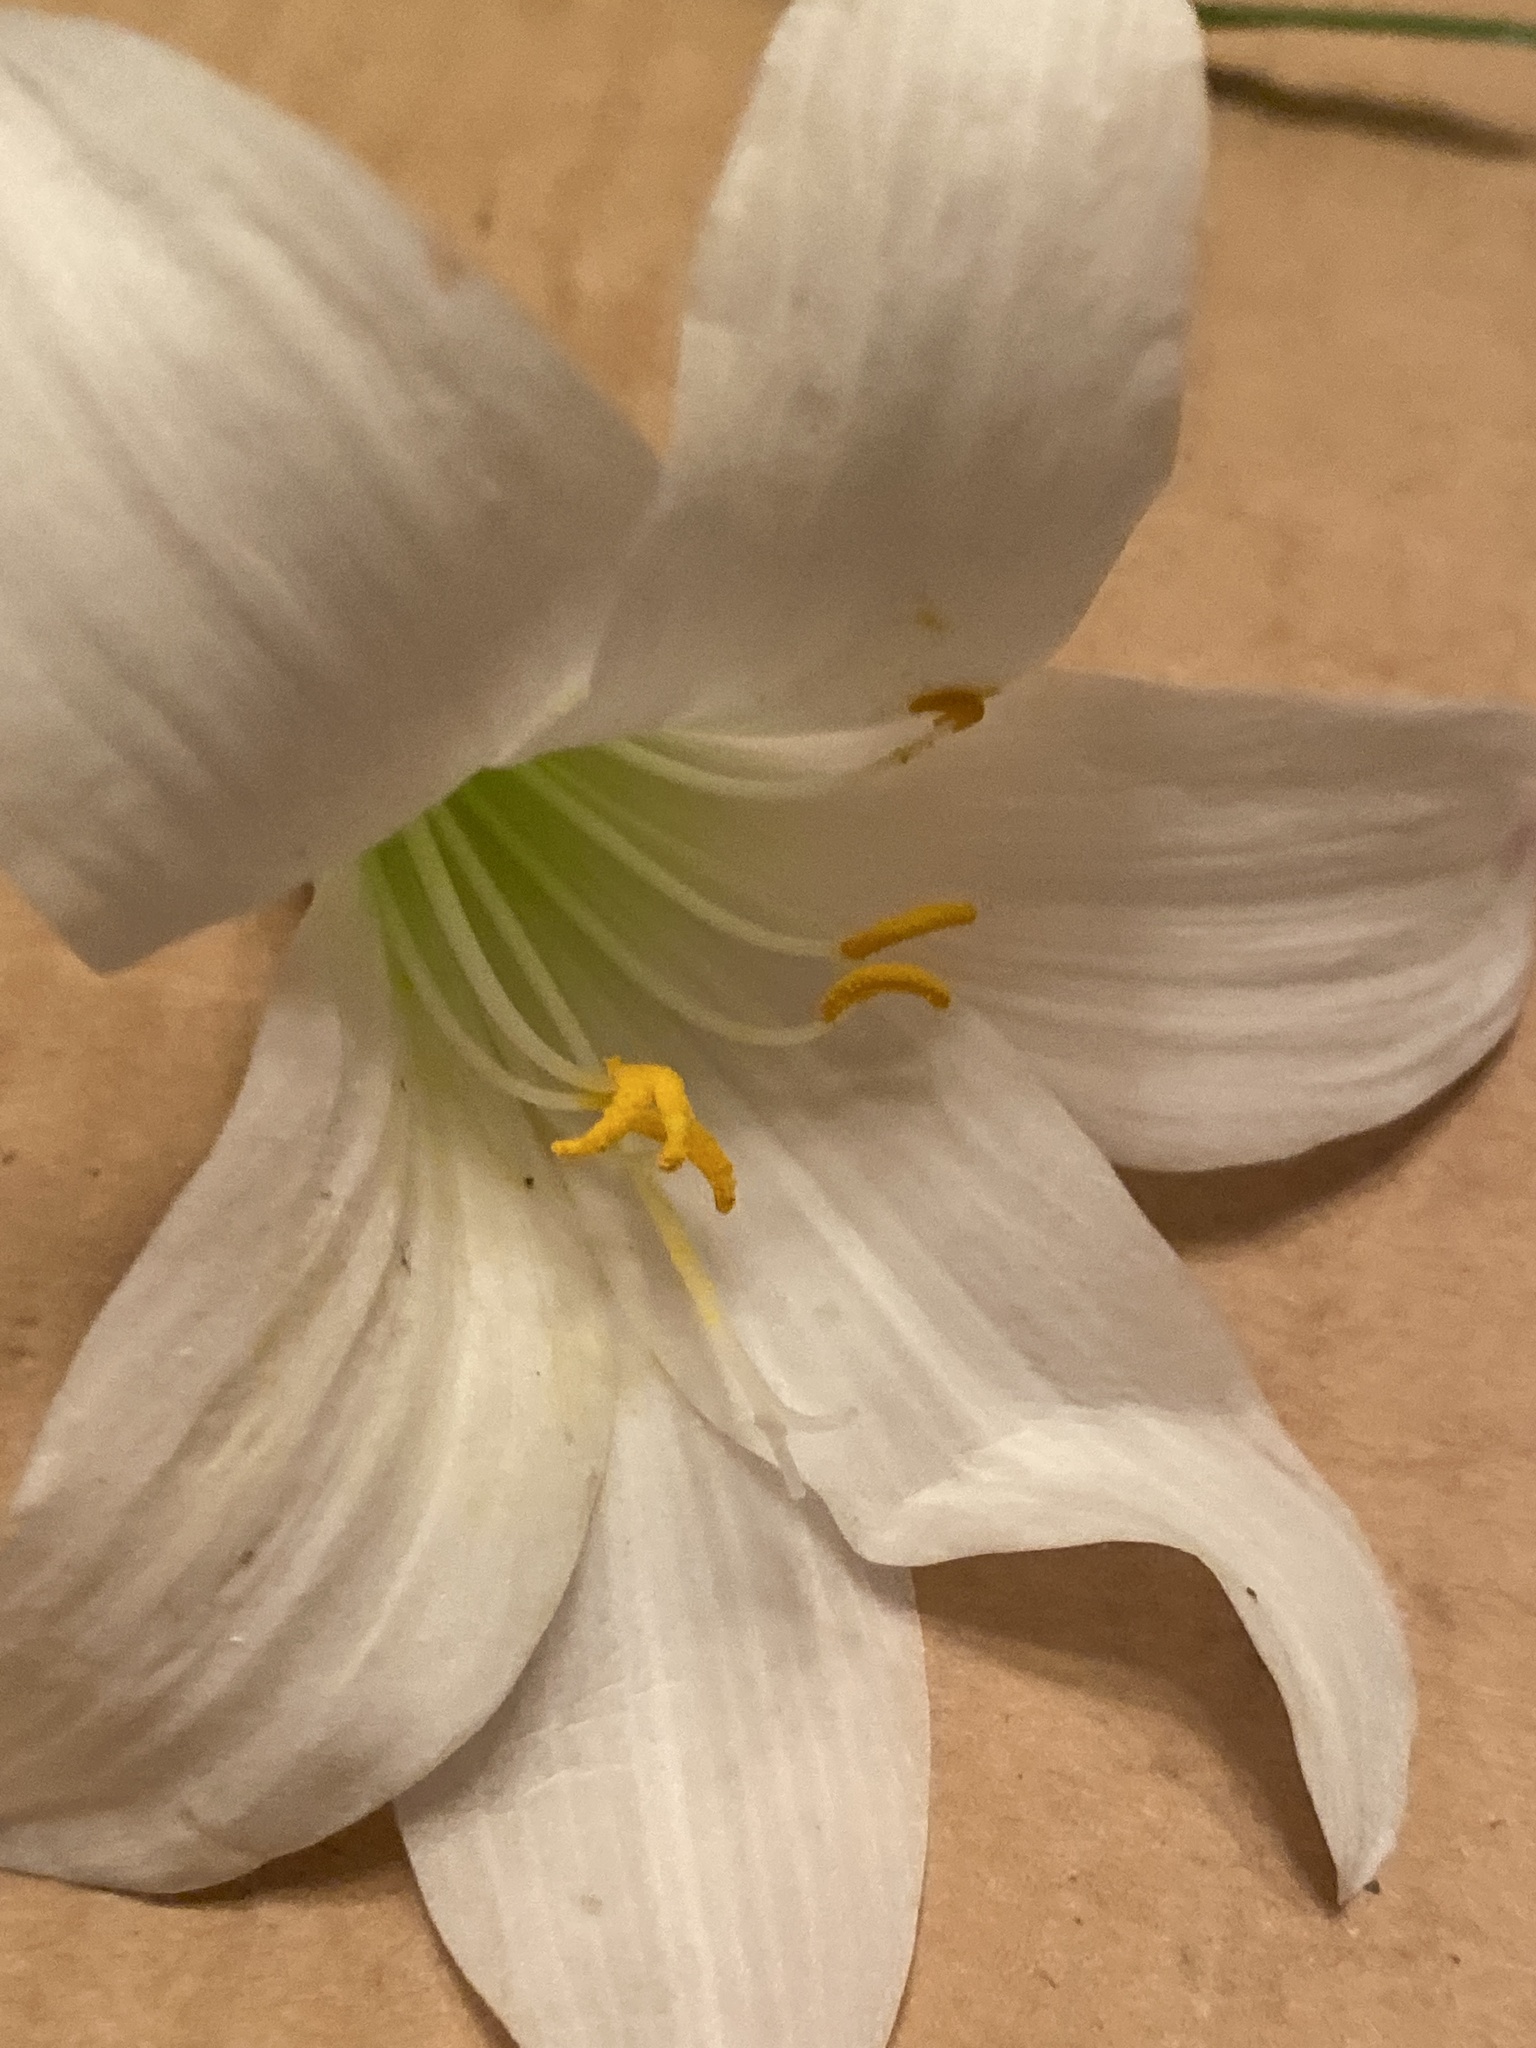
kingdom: Plantae
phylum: Tracheophyta
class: Liliopsida
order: Asparagales
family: Amaryllidaceae
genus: Zephyranthes
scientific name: Zephyranthes atamasco
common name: Atamasco lily
